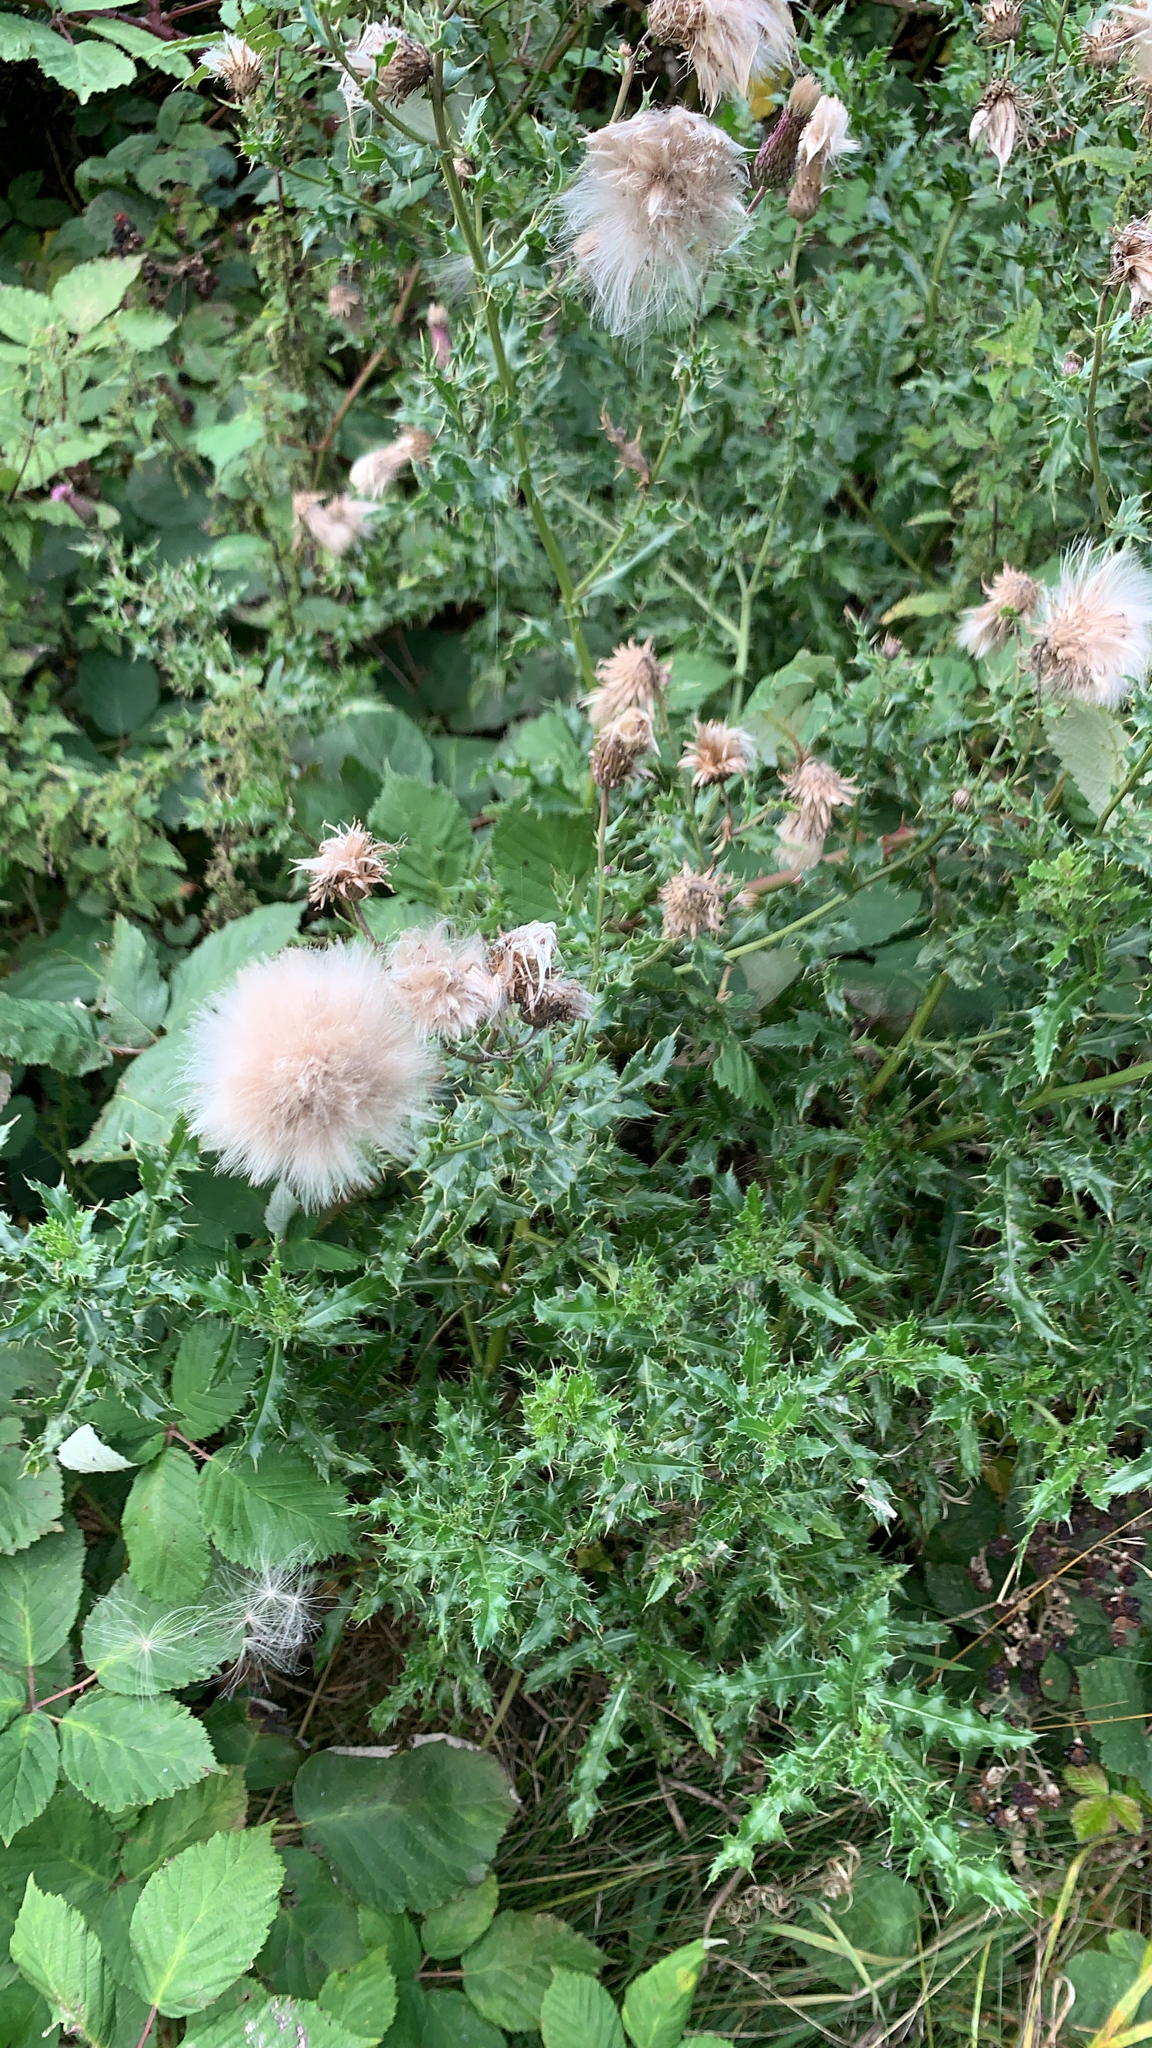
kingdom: Plantae
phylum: Tracheophyta
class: Magnoliopsida
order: Asterales
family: Asteraceae
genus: Cirsium
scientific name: Cirsium arvense
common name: Creeping thistle
